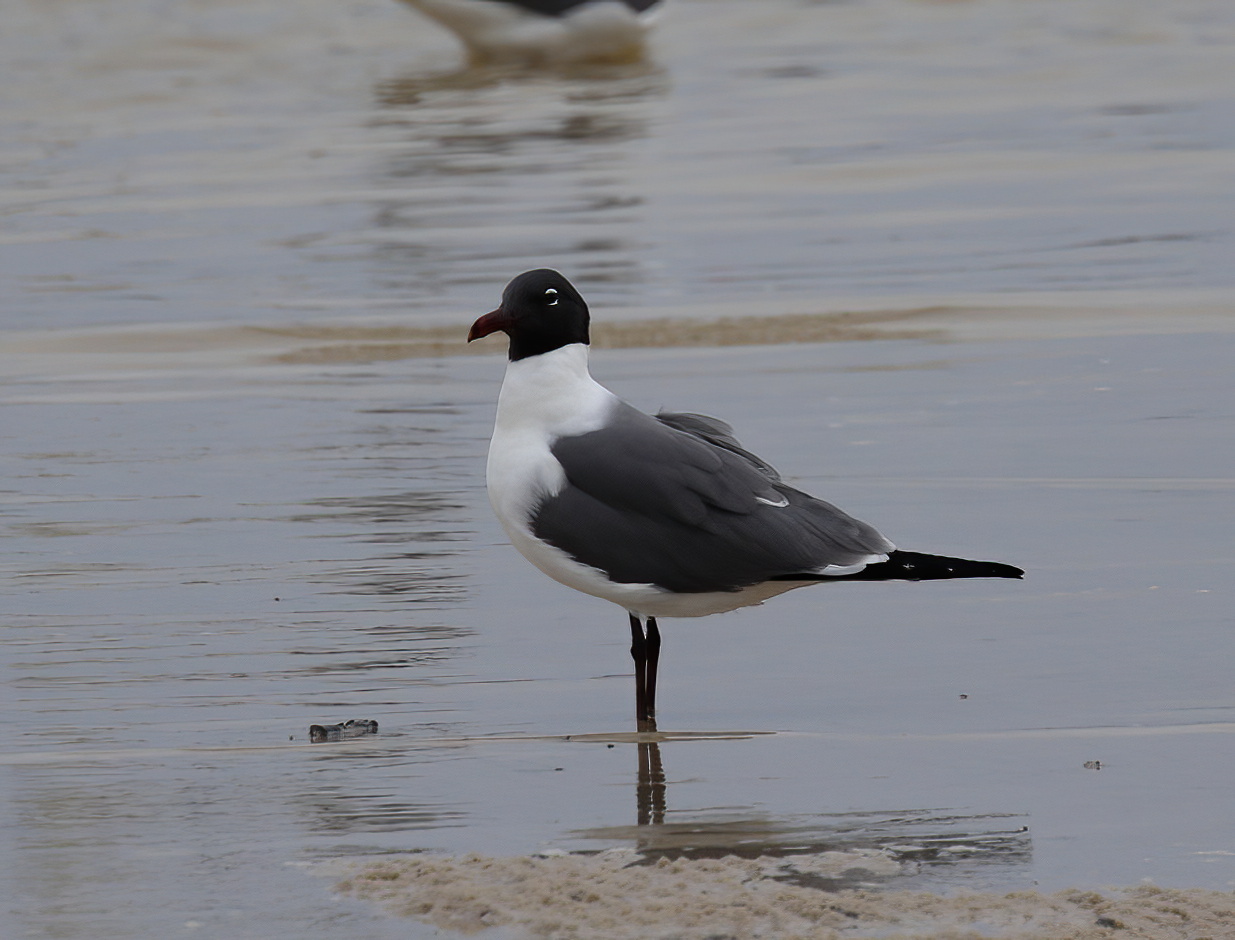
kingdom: Animalia
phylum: Chordata
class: Aves
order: Charadriiformes
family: Laridae
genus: Leucophaeus
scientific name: Leucophaeus atricilla
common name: Laughing gull
